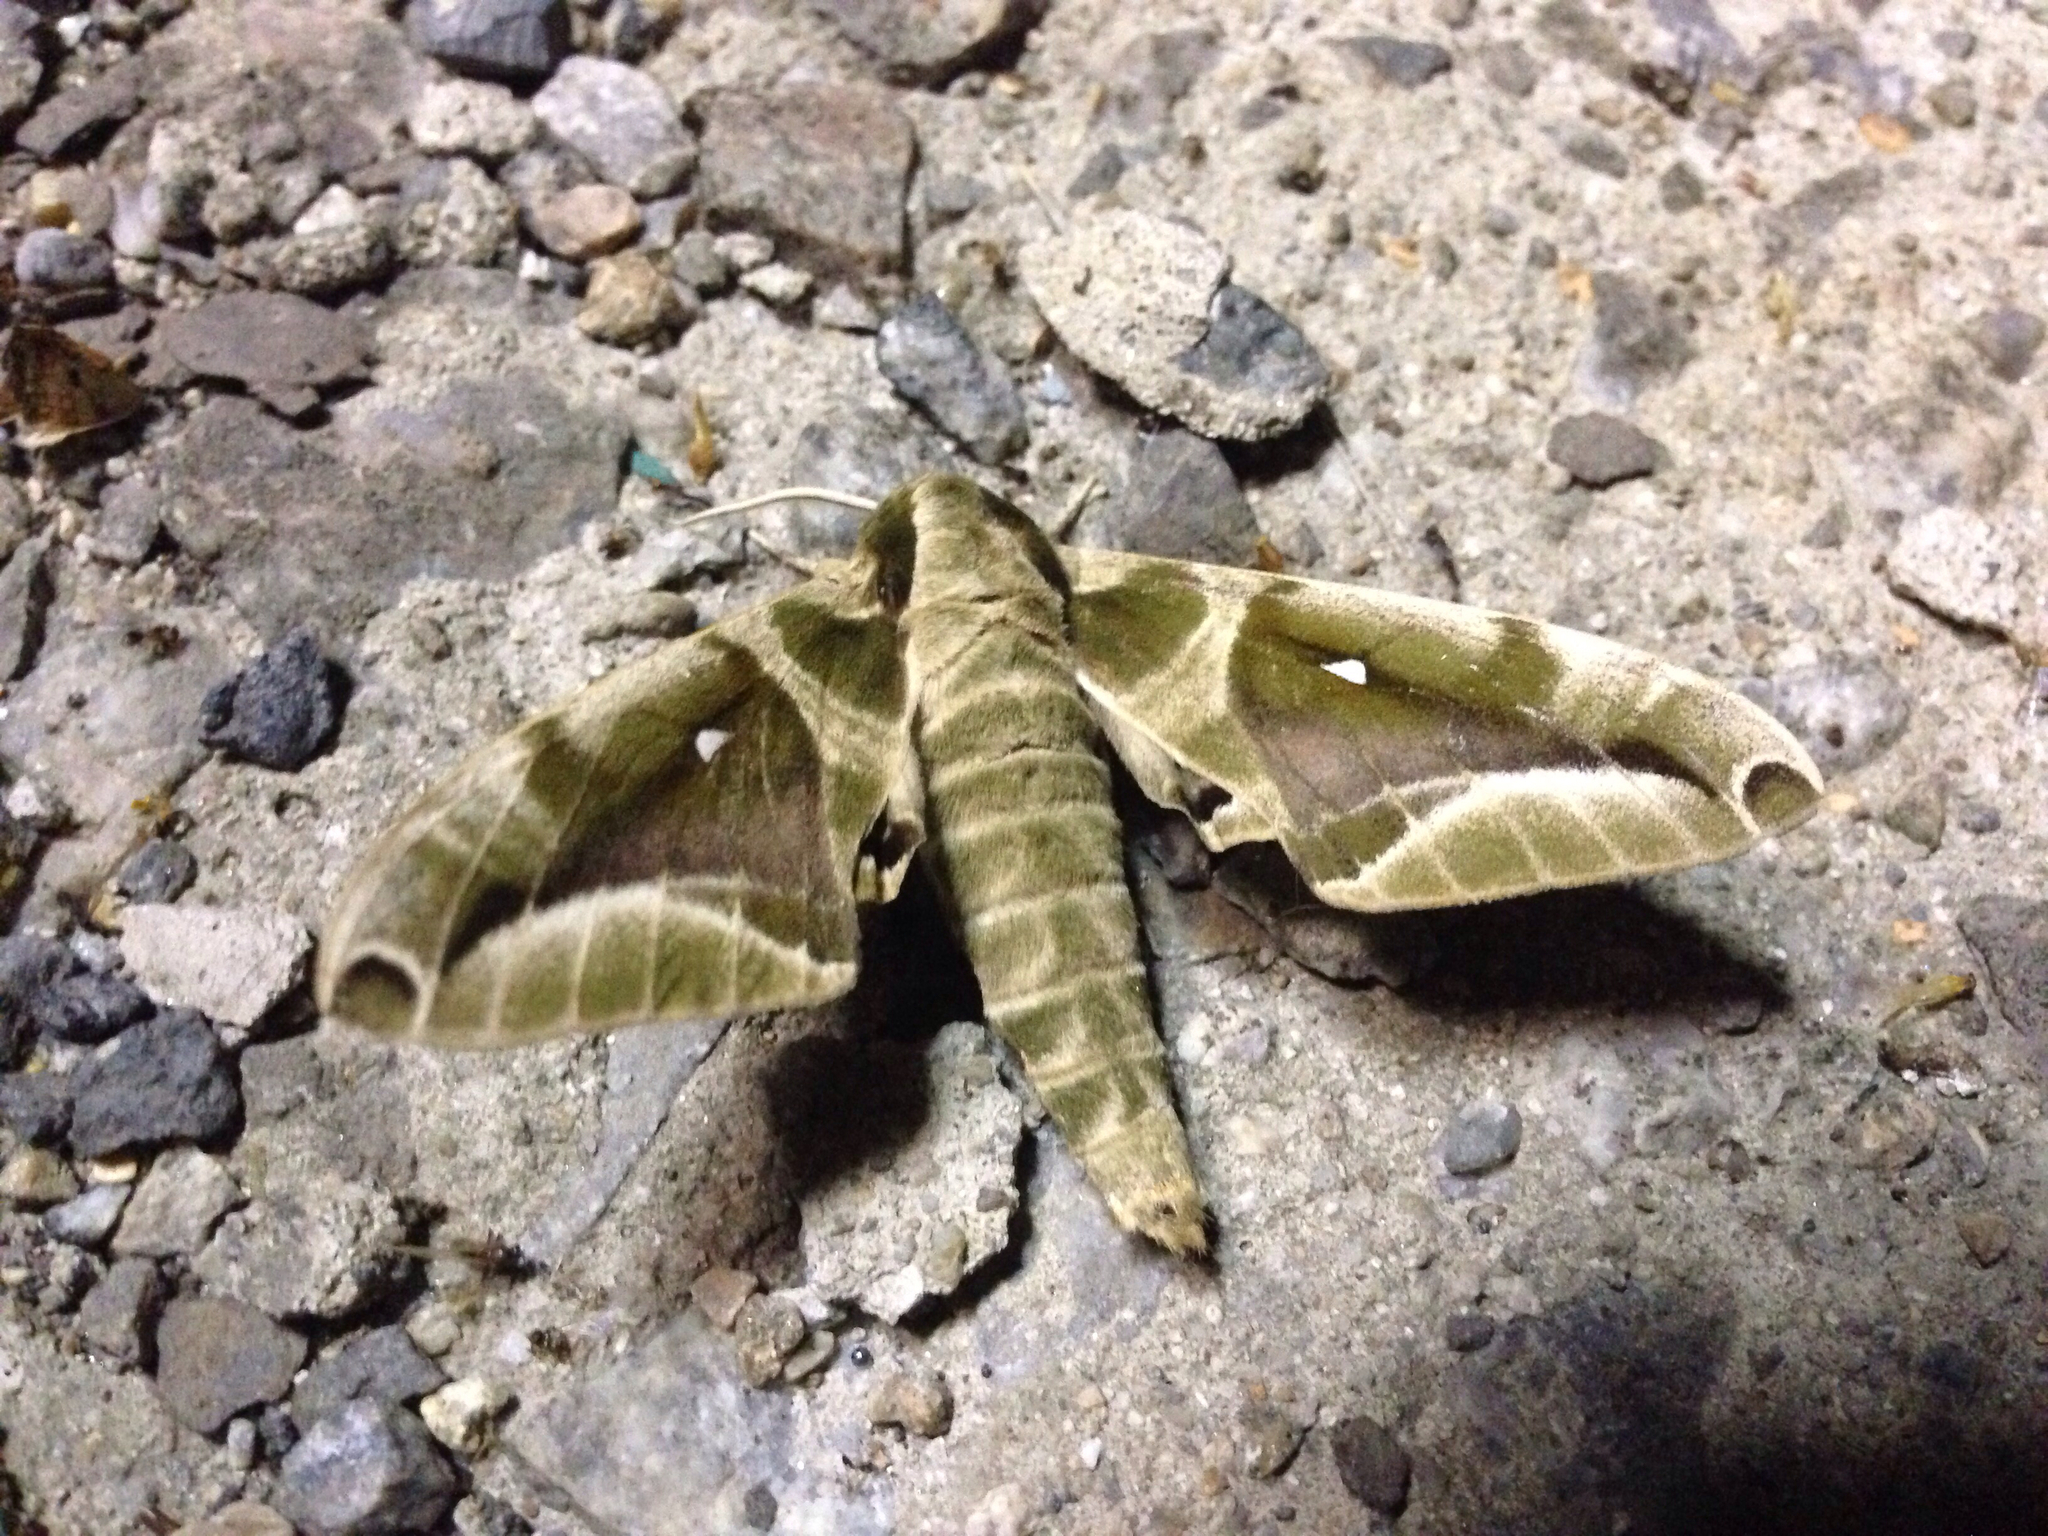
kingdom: Animalia
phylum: Arthropoda
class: Insecta
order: Lepidoptera
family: Sphingidae
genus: Parum
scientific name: Parum colligata
